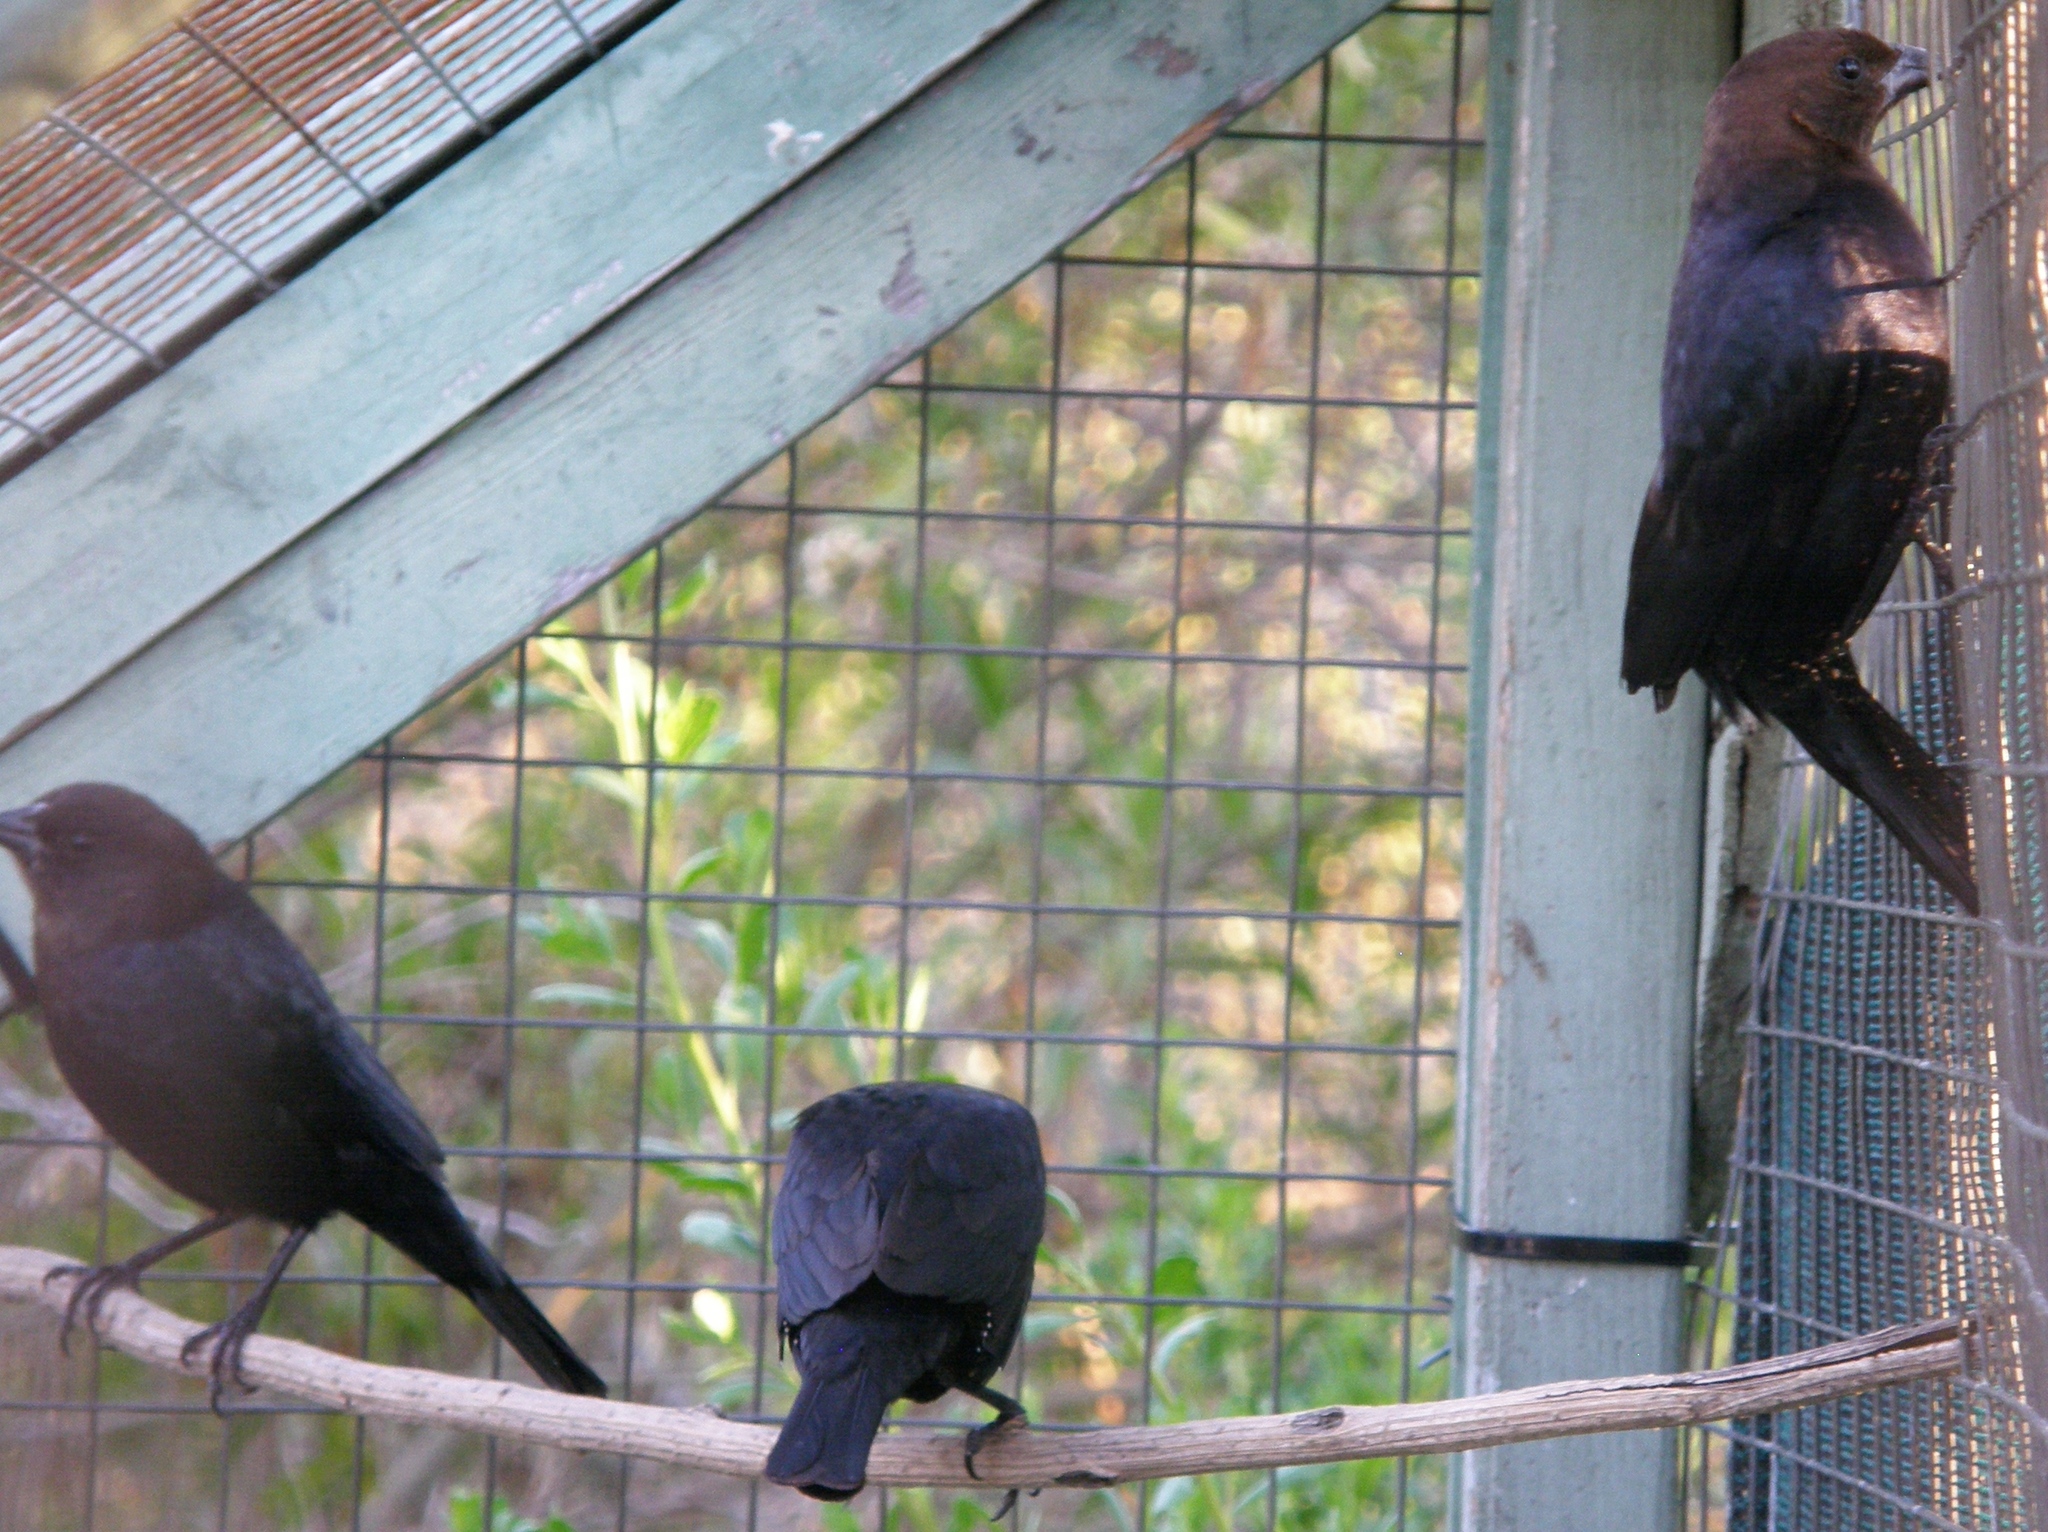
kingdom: Animalia
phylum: Chordata
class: Aves
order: Passeriformes
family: Icteridae
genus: Molothrus
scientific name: Molothrus ater
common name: Brown-headed cowbird
